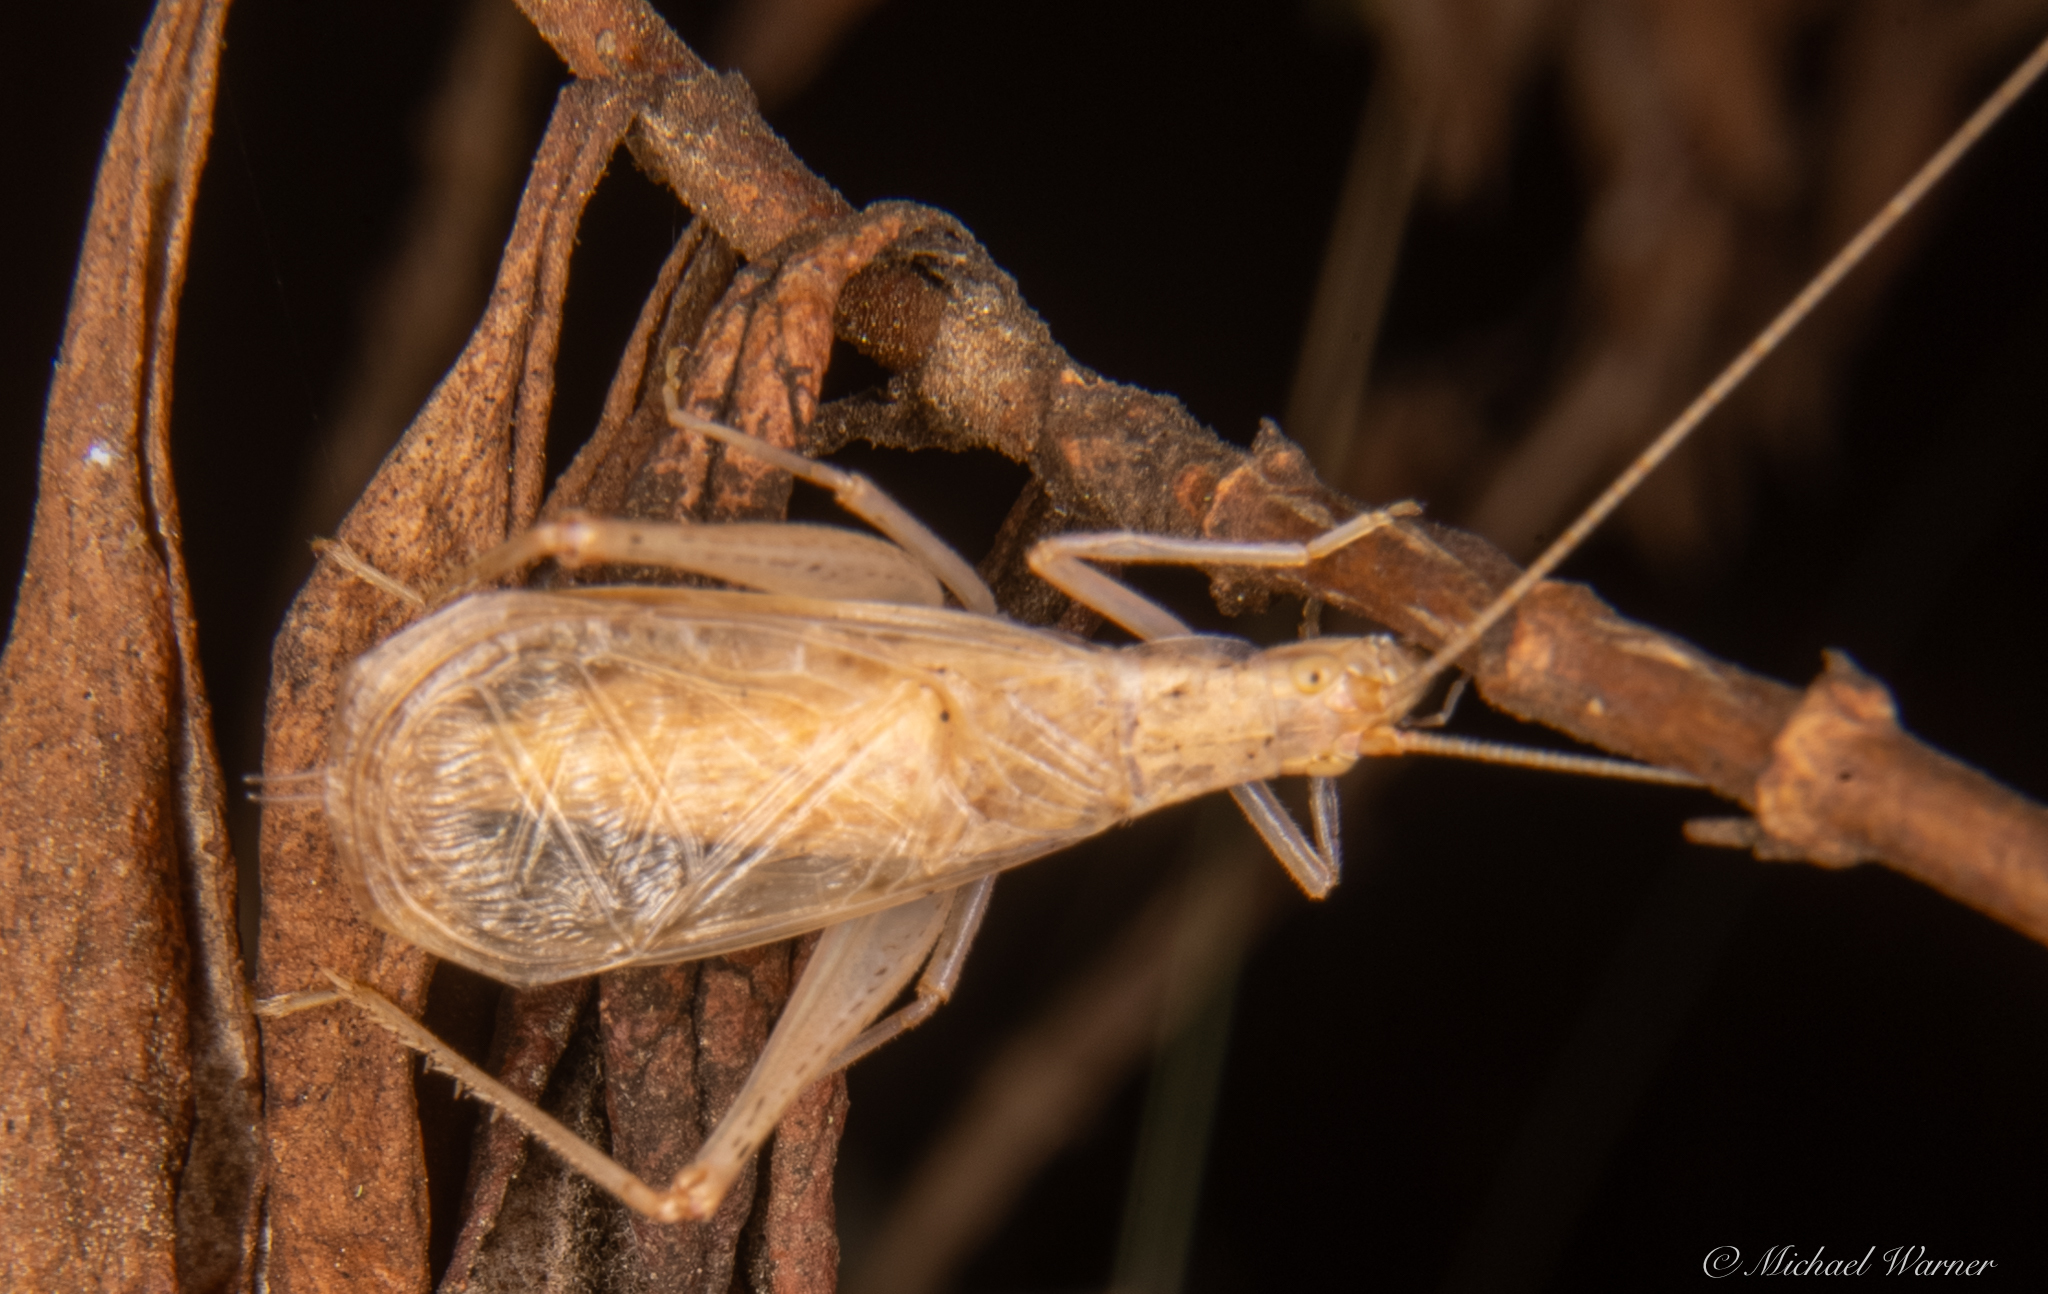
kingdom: Animalia
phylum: Arthropoda
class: Insecta
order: Orthoptera
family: Gryllidae
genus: Oecanthus
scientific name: Oecanthus californicus
